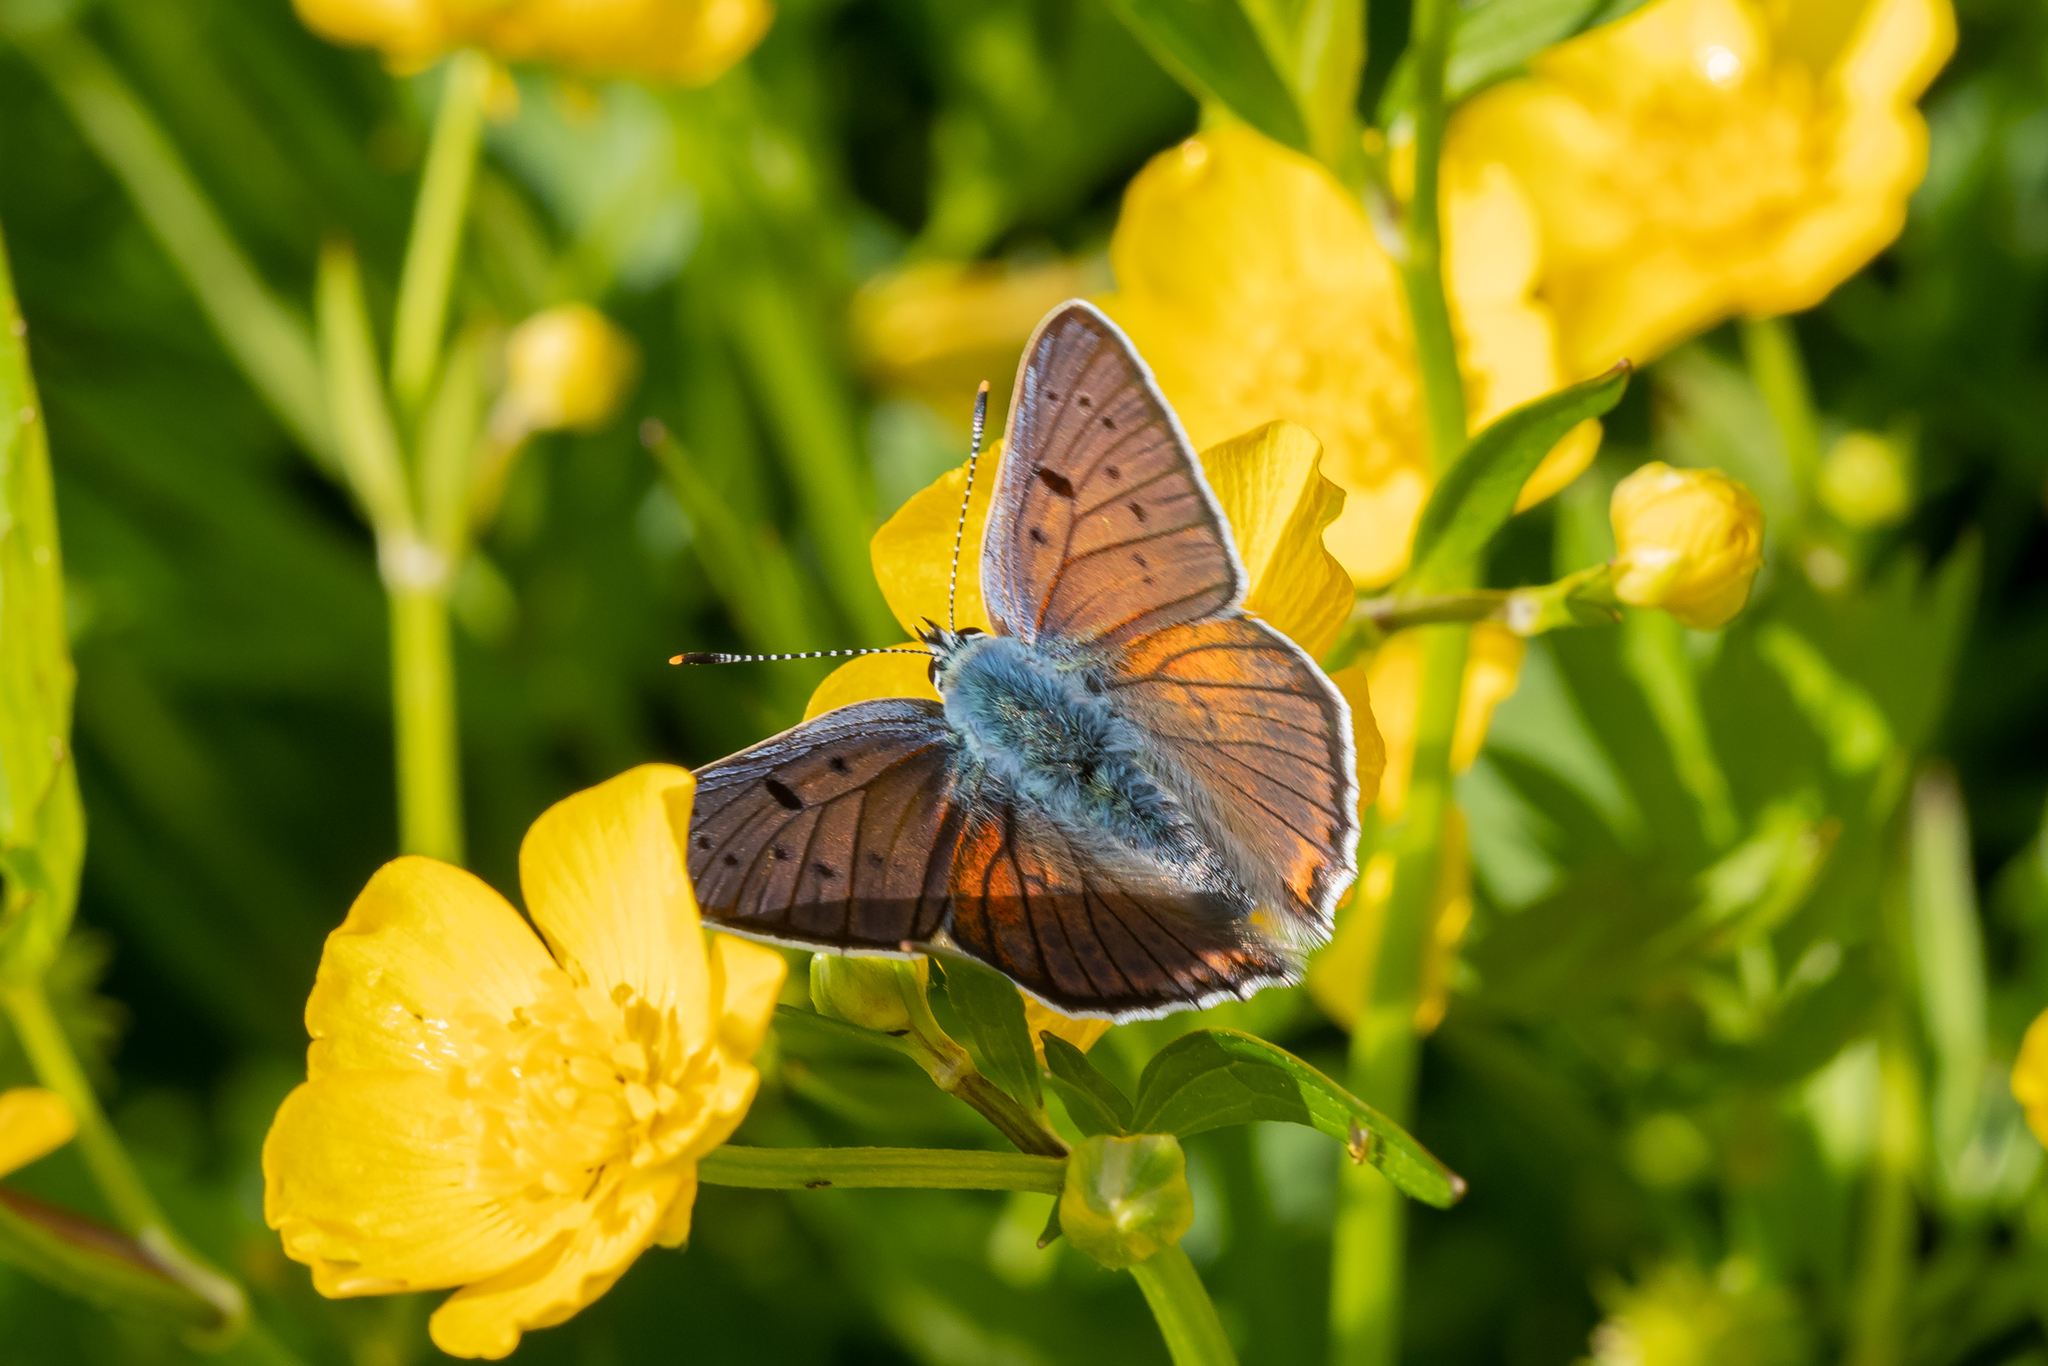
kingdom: Animalia
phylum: Arthropoda
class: Insecta
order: Lepidoptera
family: Lycaenidae
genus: Lycaena
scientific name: Lycaena alciphron
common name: Purple-shot copper
